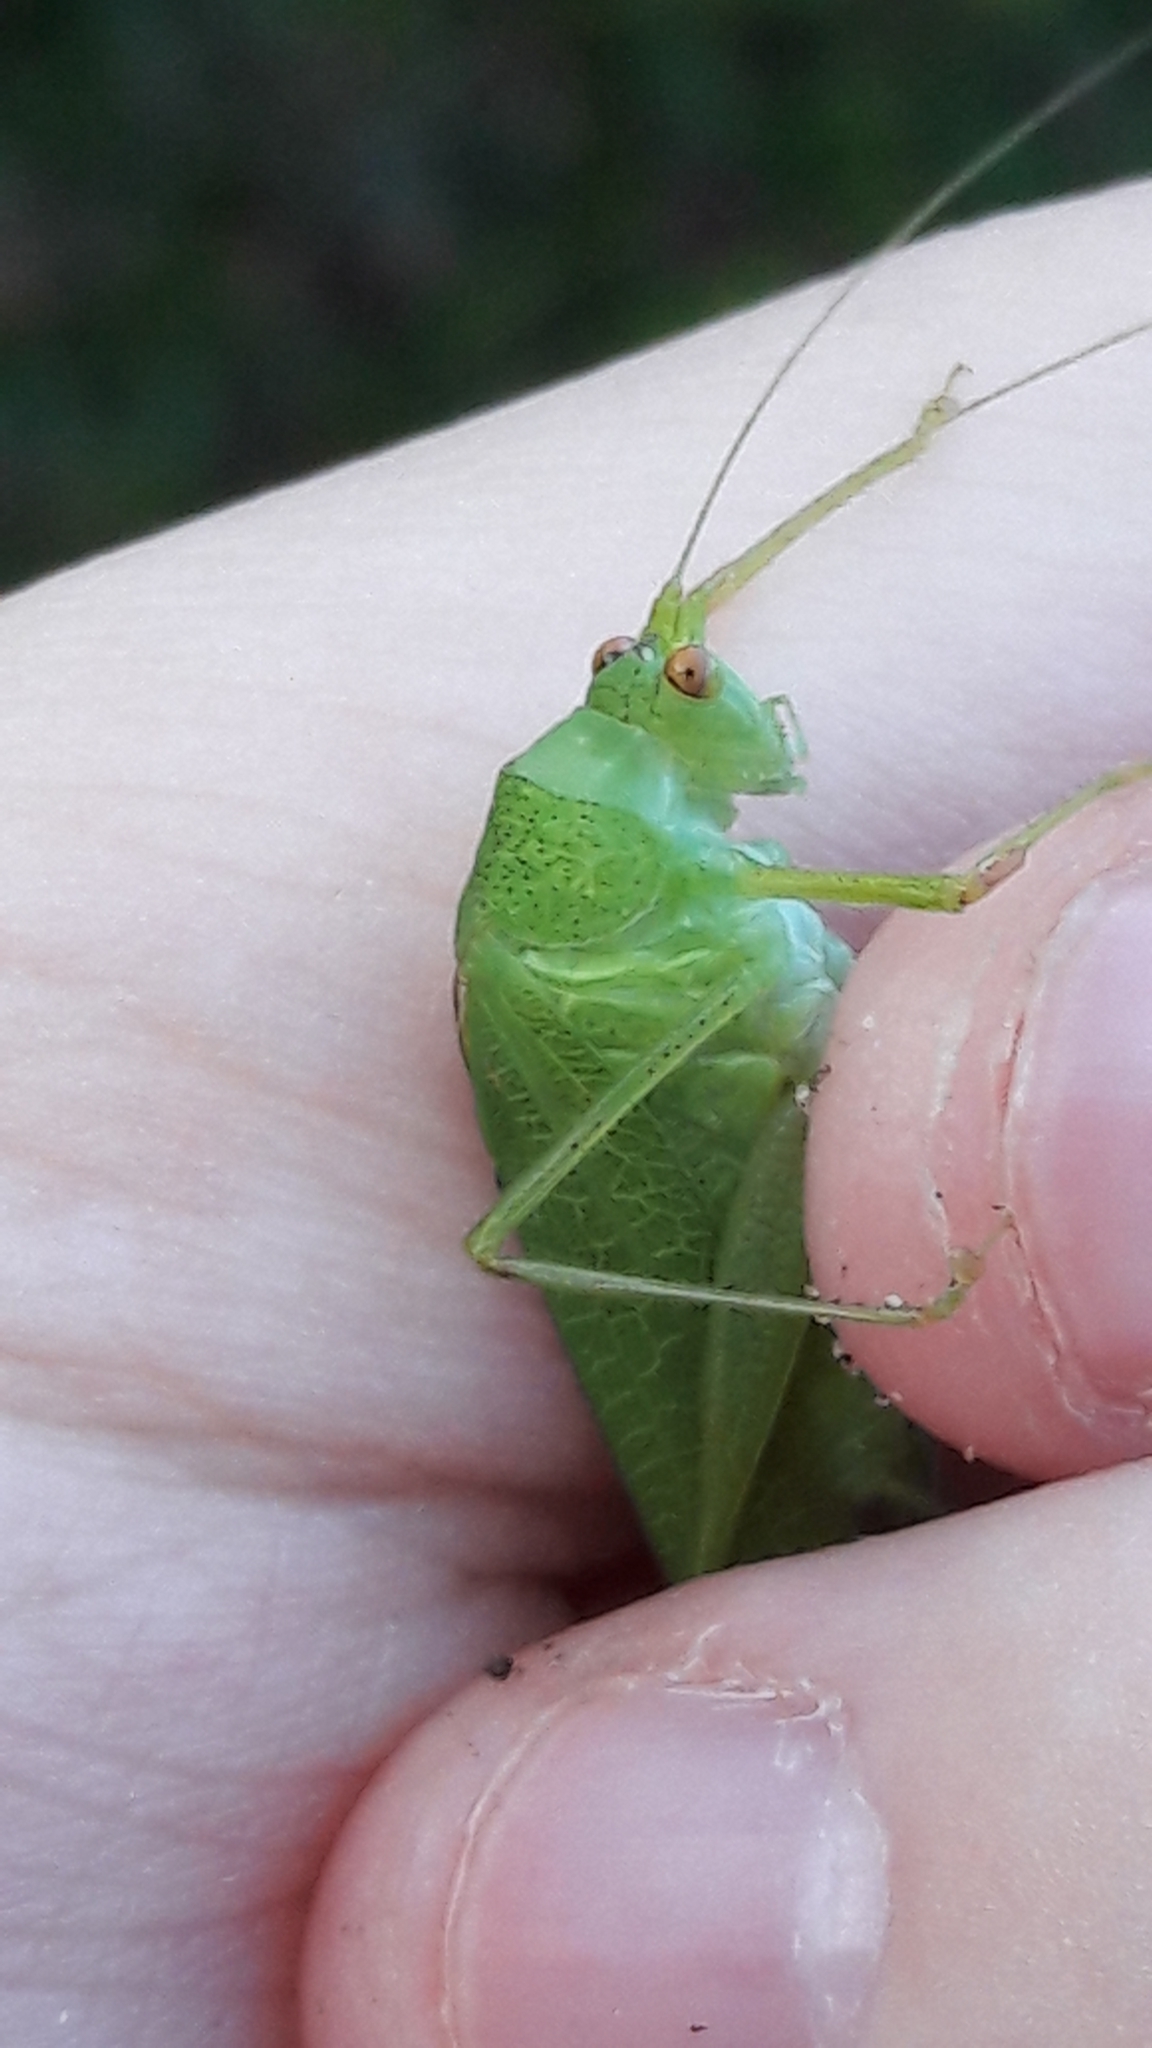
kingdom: Animalia
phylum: Arthropoda
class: Insecta
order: Orthoptera
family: Tettigoniidae
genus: Phaneroptera
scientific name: Phaneroptera nana
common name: Southern sickle bush-cricket
